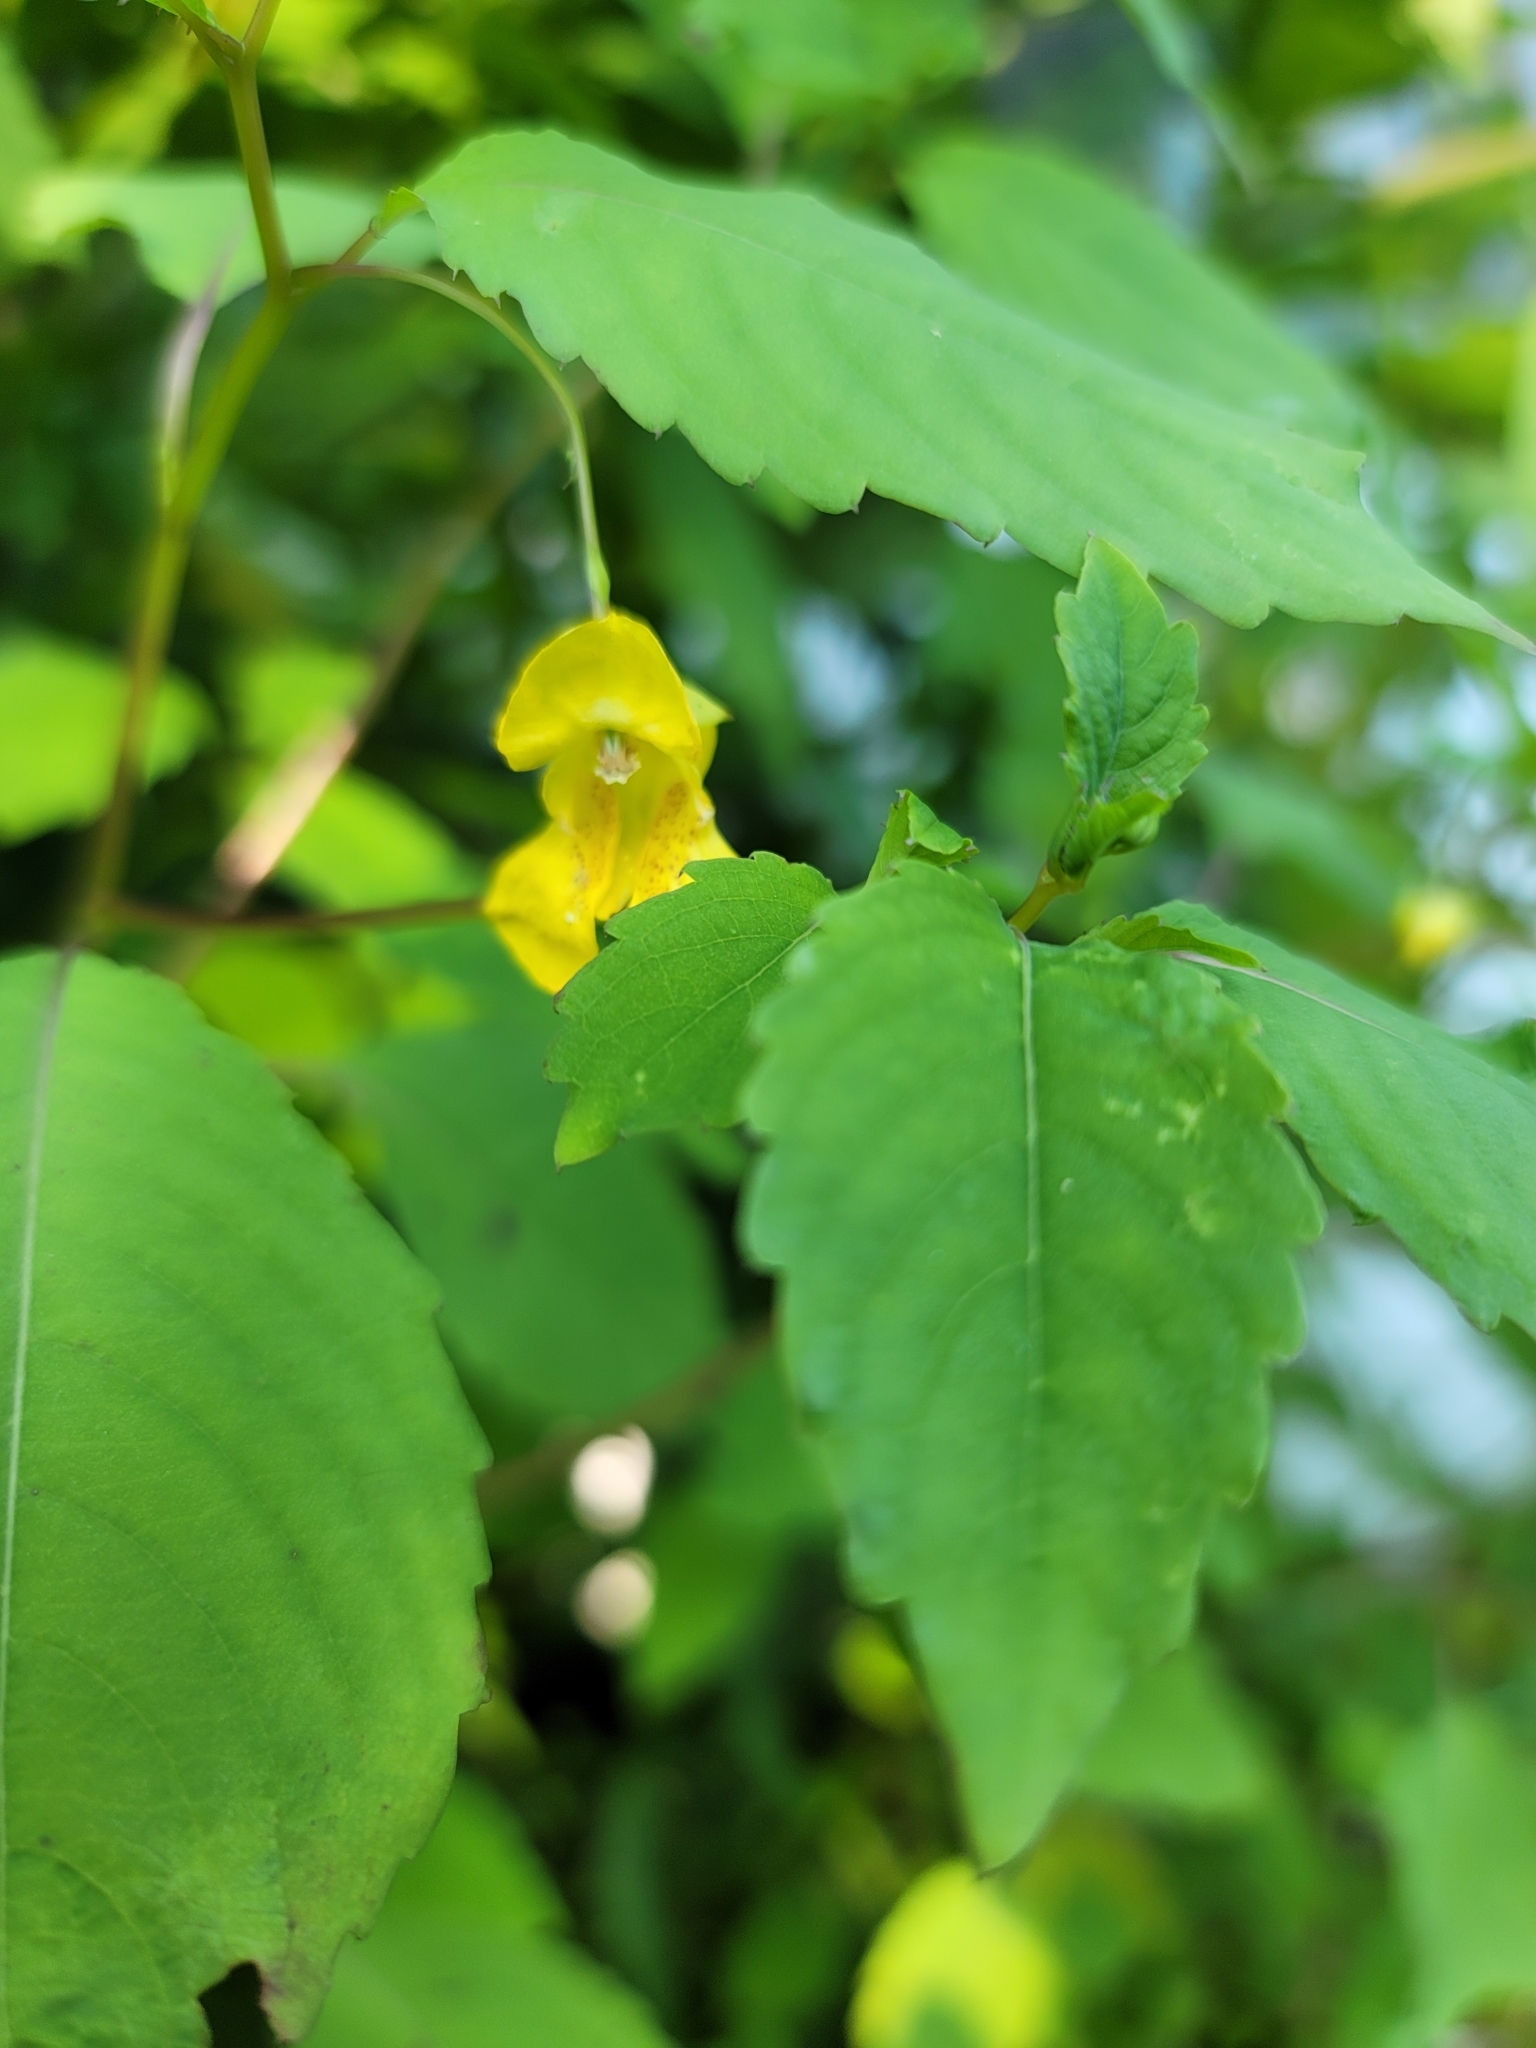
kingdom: Plantae
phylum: Tracheophyta
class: Magnoliopsida
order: Ericales
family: Balsaminaceae
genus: Impatiens
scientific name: Impatiens pallida
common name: Pale snapweed
